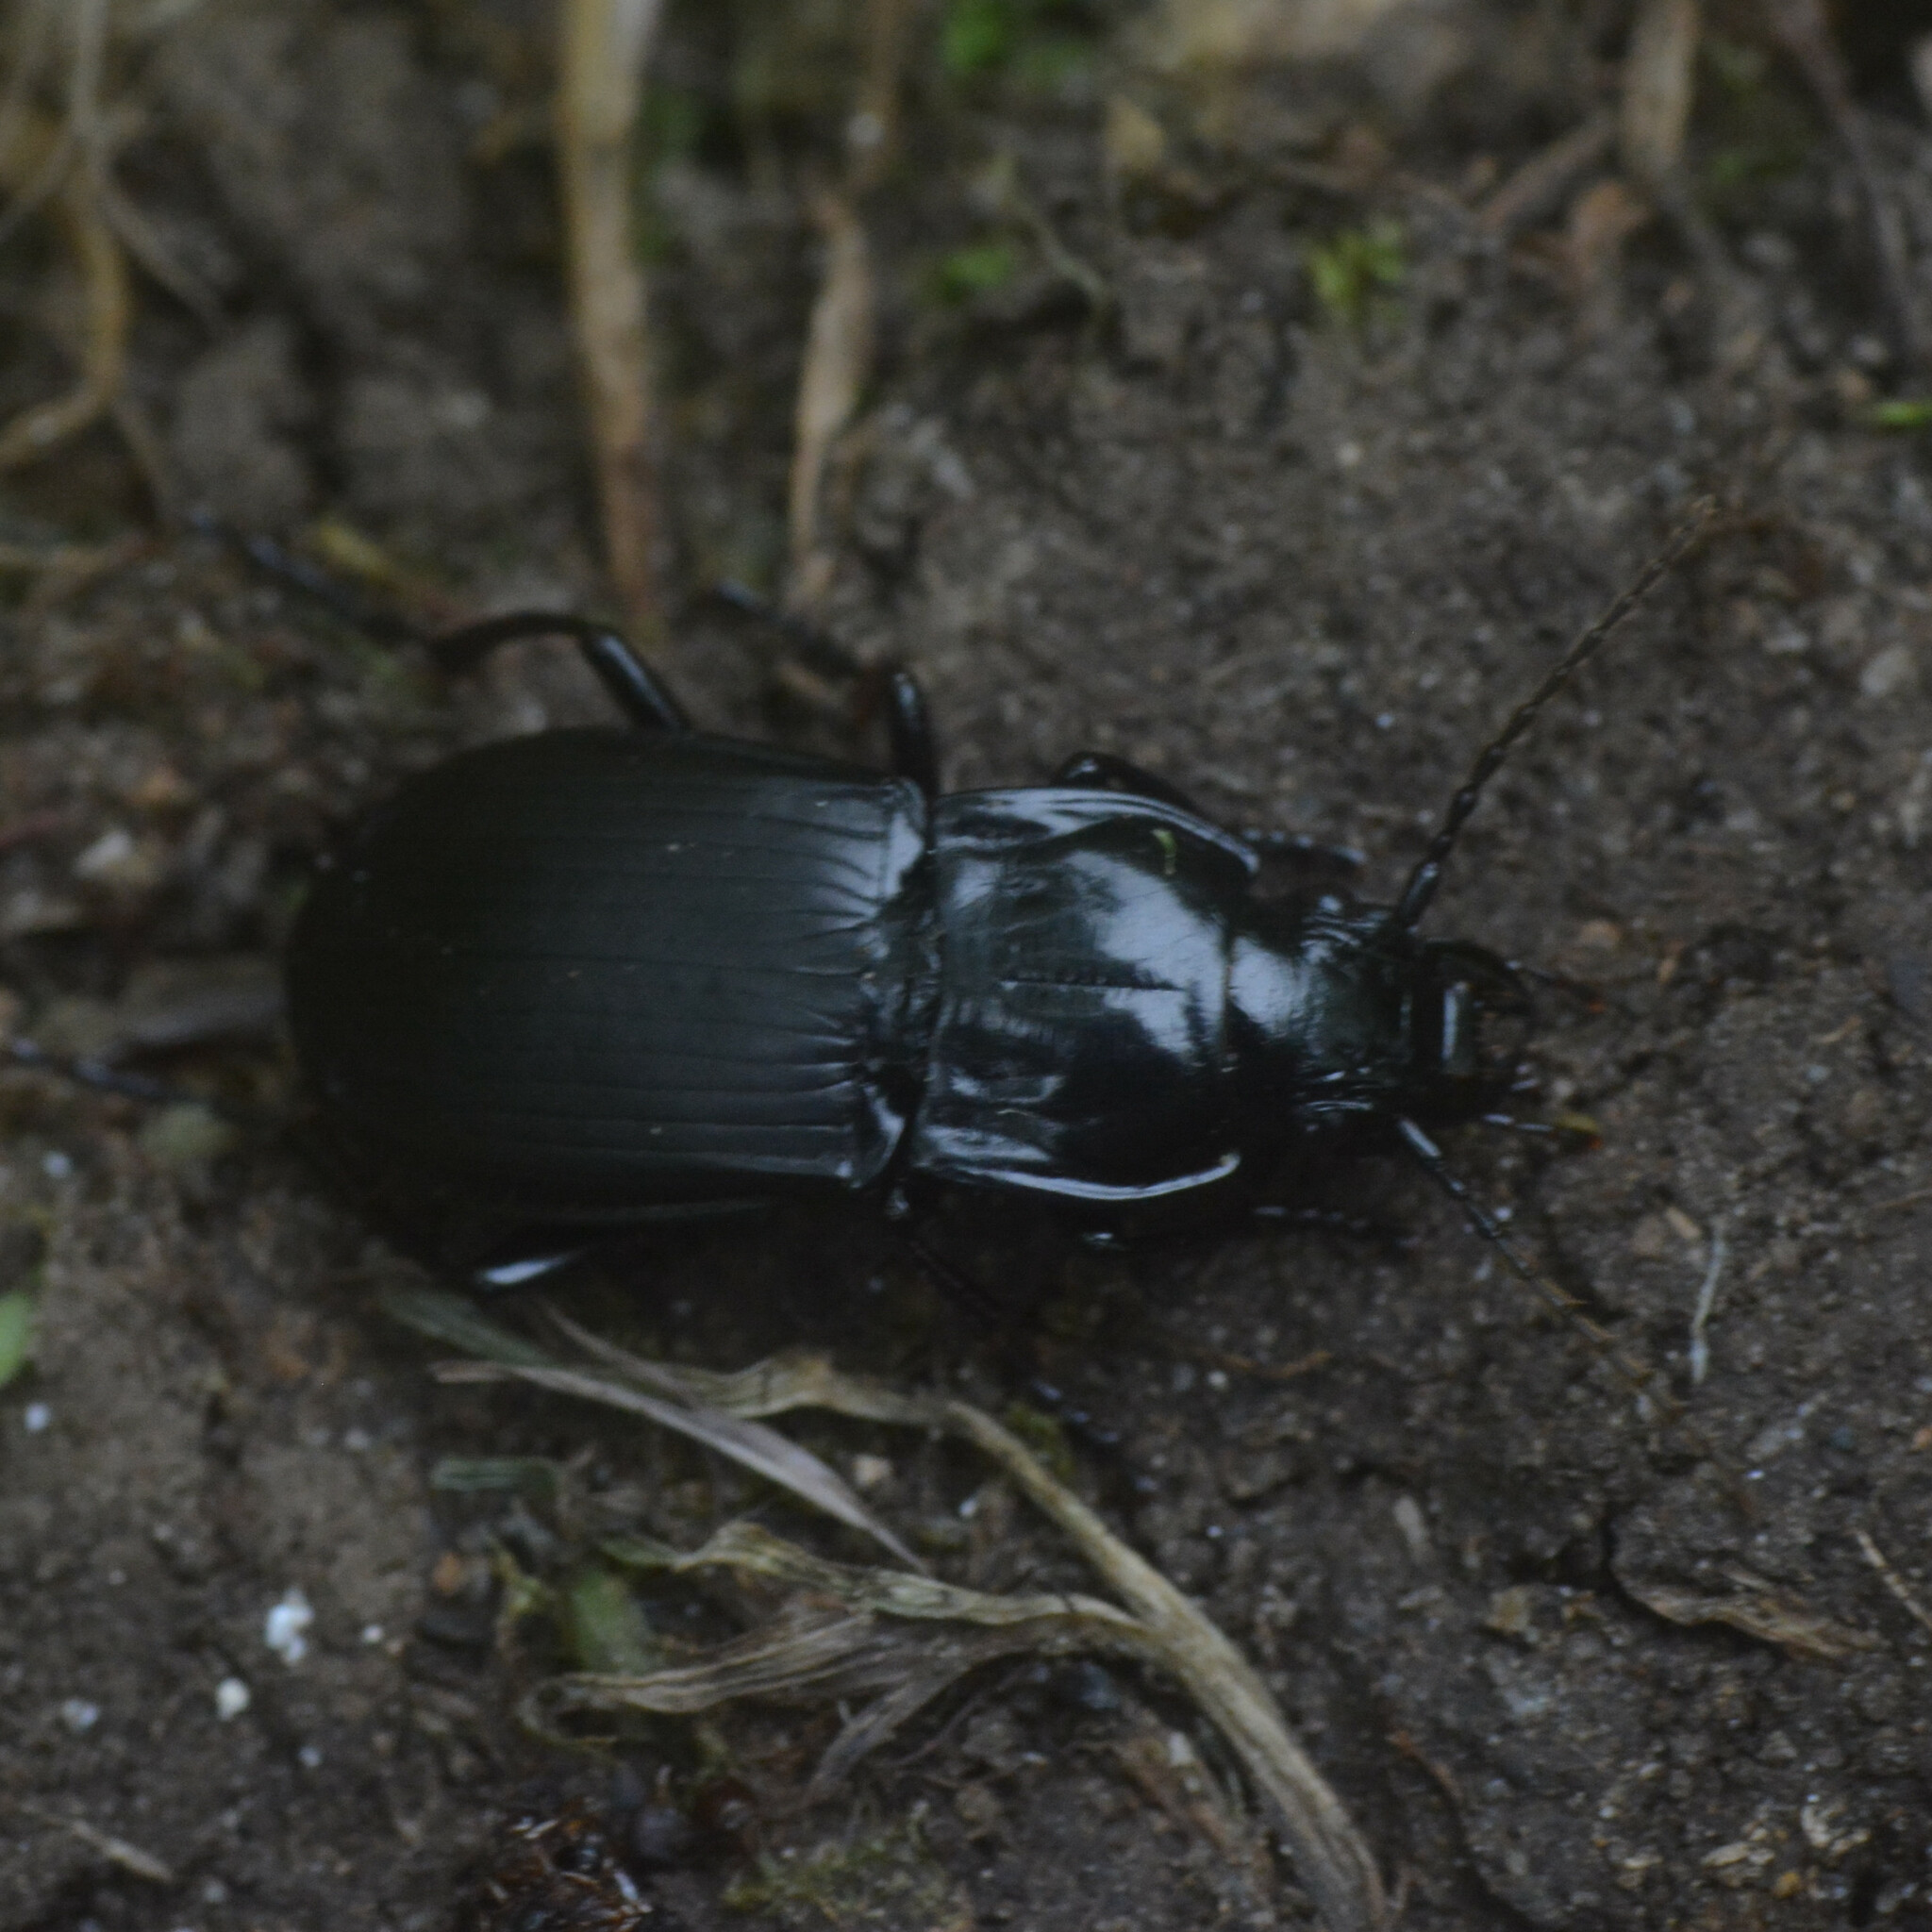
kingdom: Animalia
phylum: Arthropoda
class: Insecta
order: Coleoptera
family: Carabidae
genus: Abax
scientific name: Abax parallelepipedus
